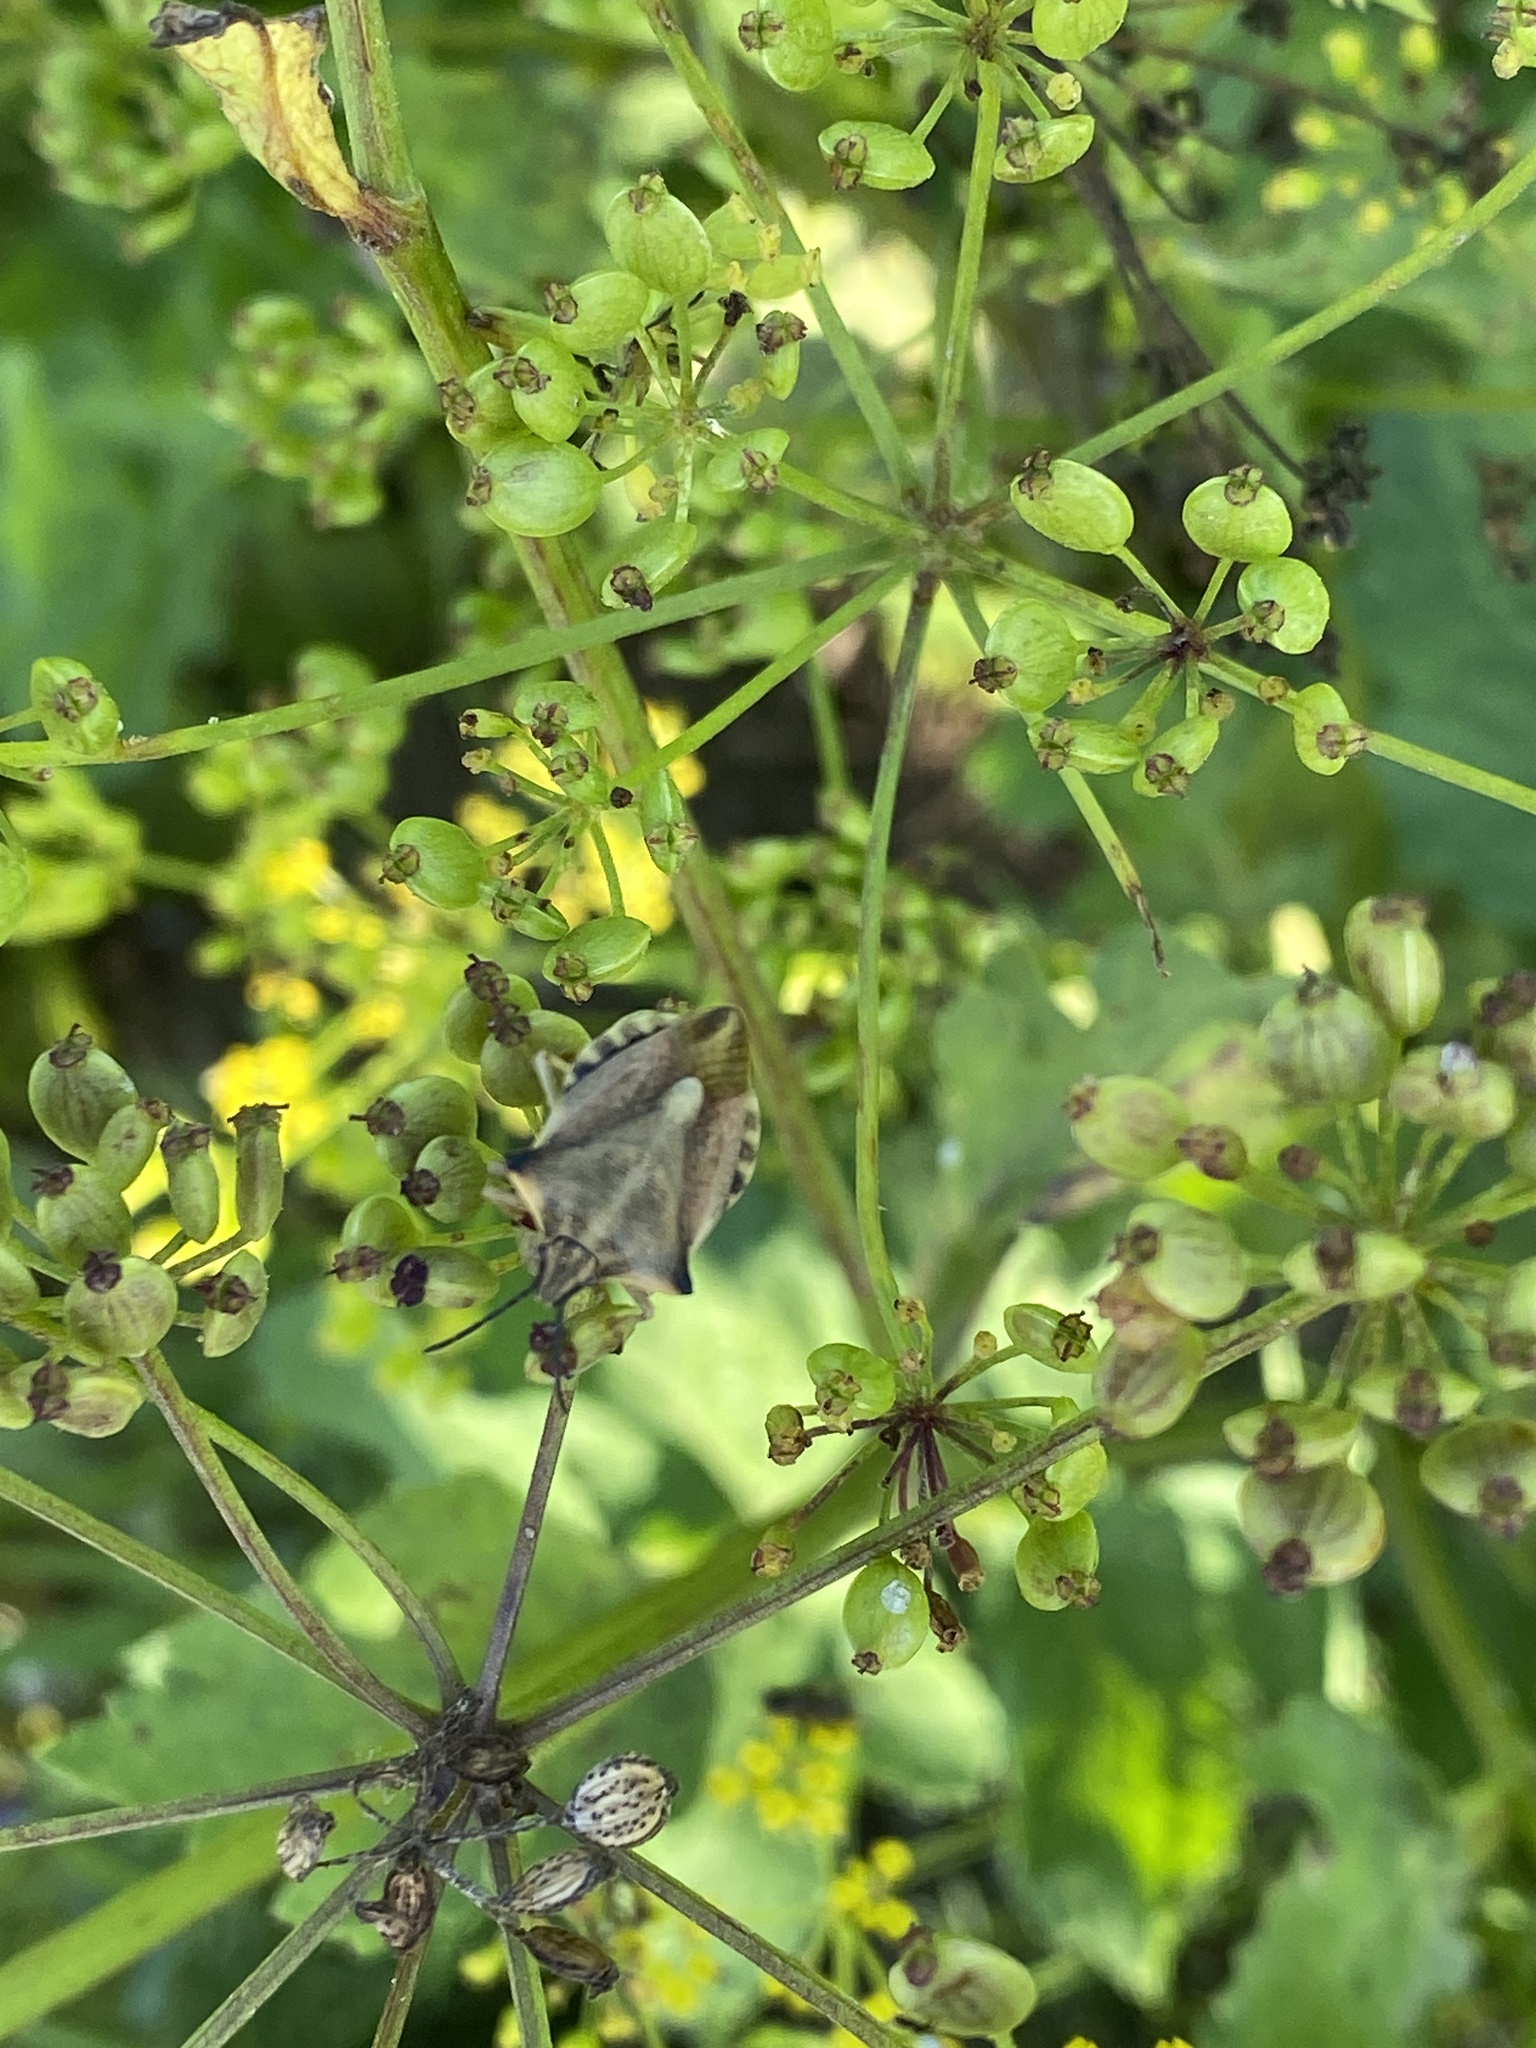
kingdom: Animalia
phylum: Arthropoda
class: Insecta
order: Hemiptera
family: Pentatomidae
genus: Carpocoris
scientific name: Carpocoris fuscispinus
